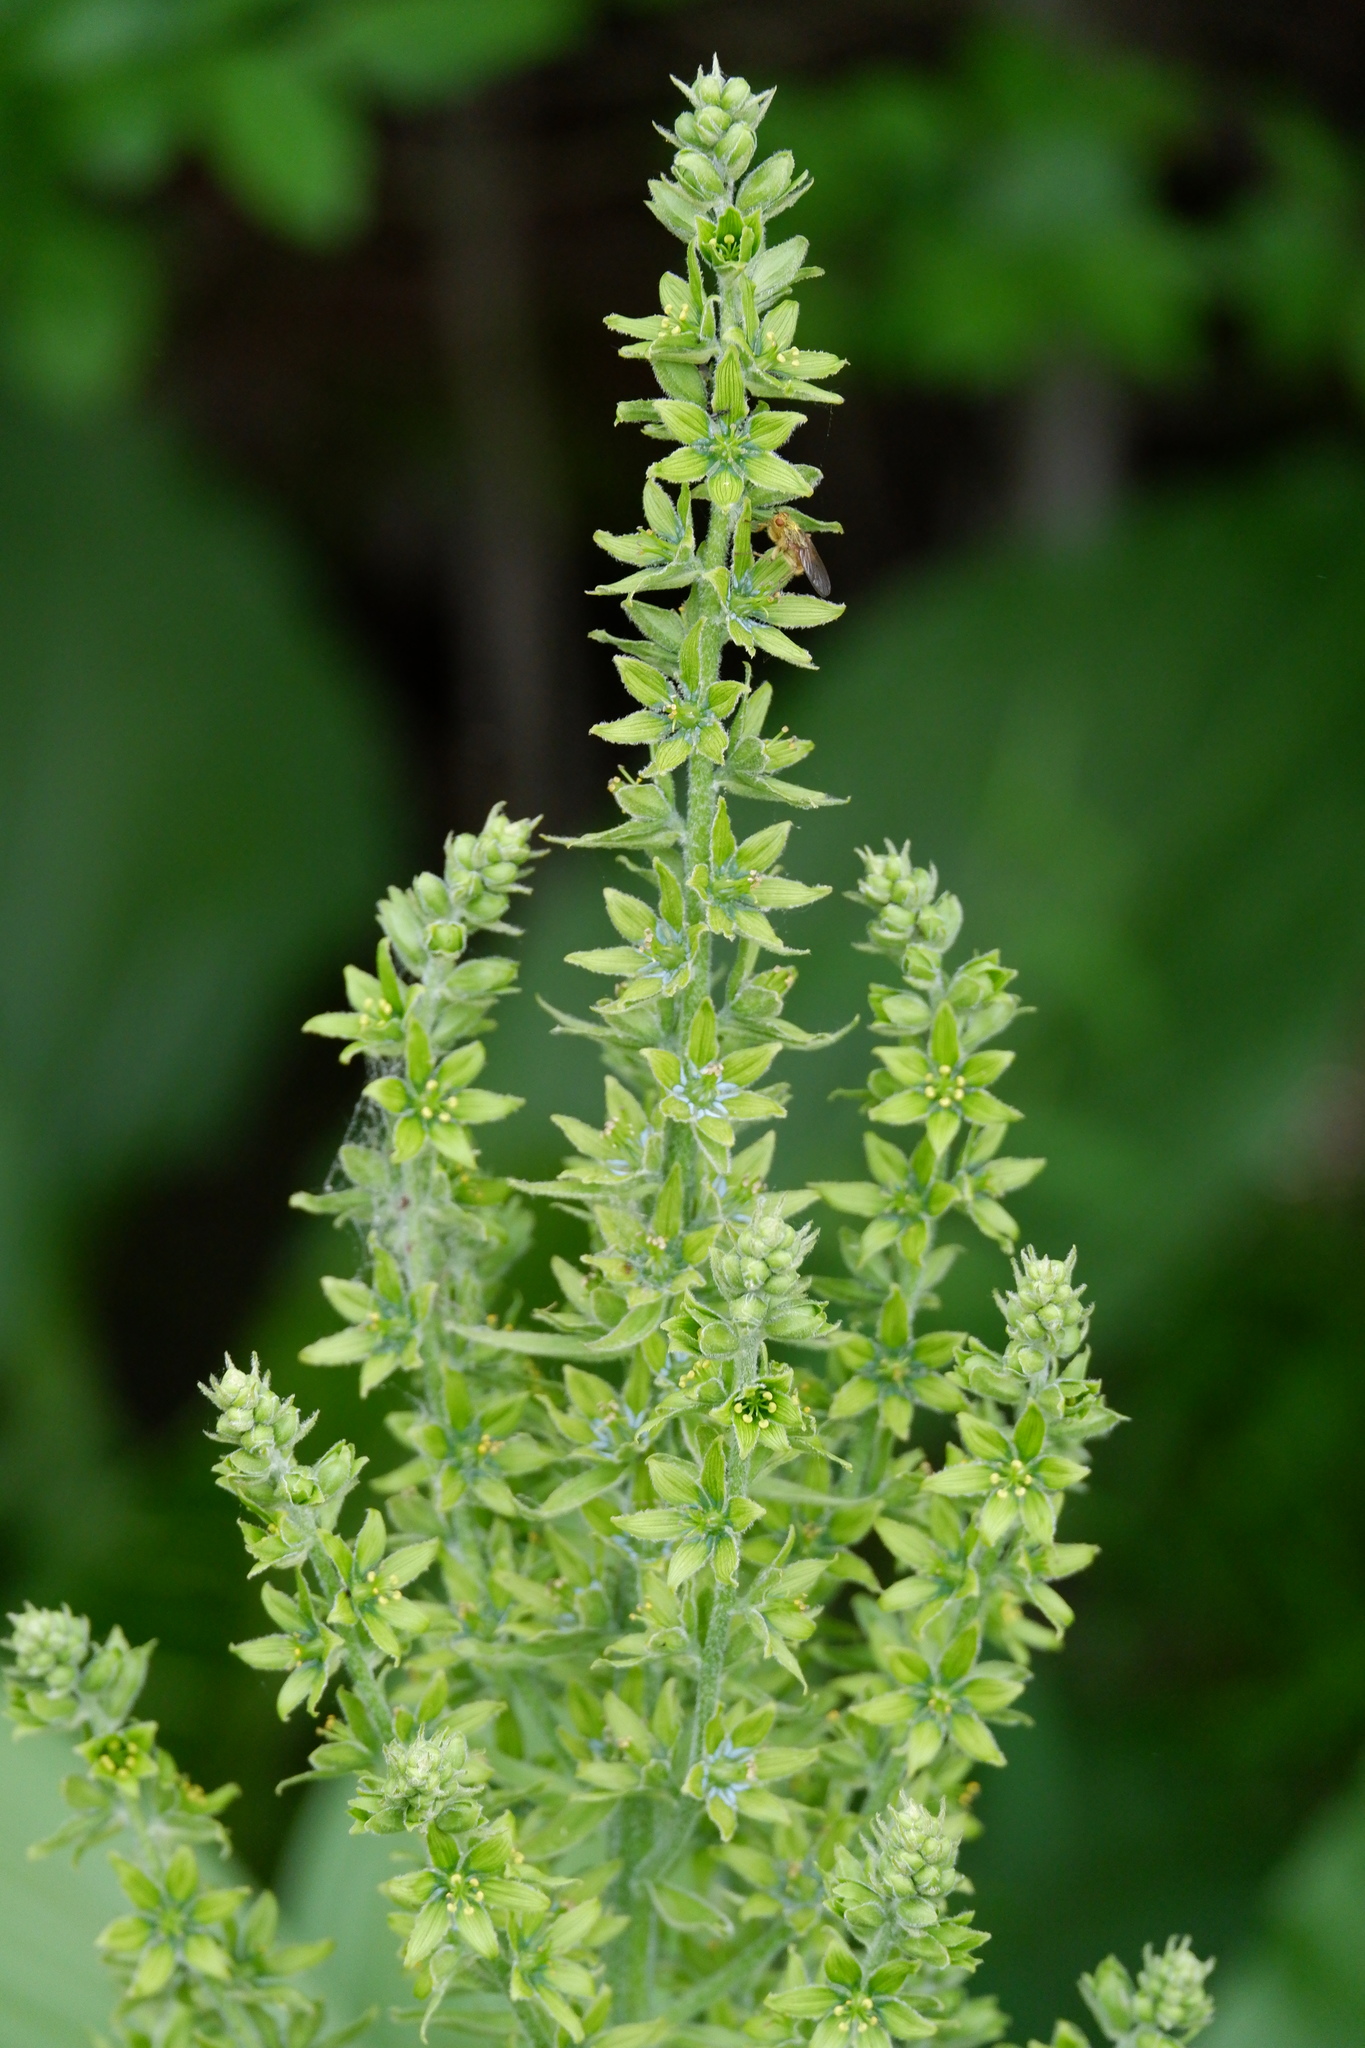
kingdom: Animalia
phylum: Arthropoda
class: Insecta
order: Diptera
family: Scathophagidae
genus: Scathophaga
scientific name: Scathophaga stercoraria
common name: Yellow dung fly
